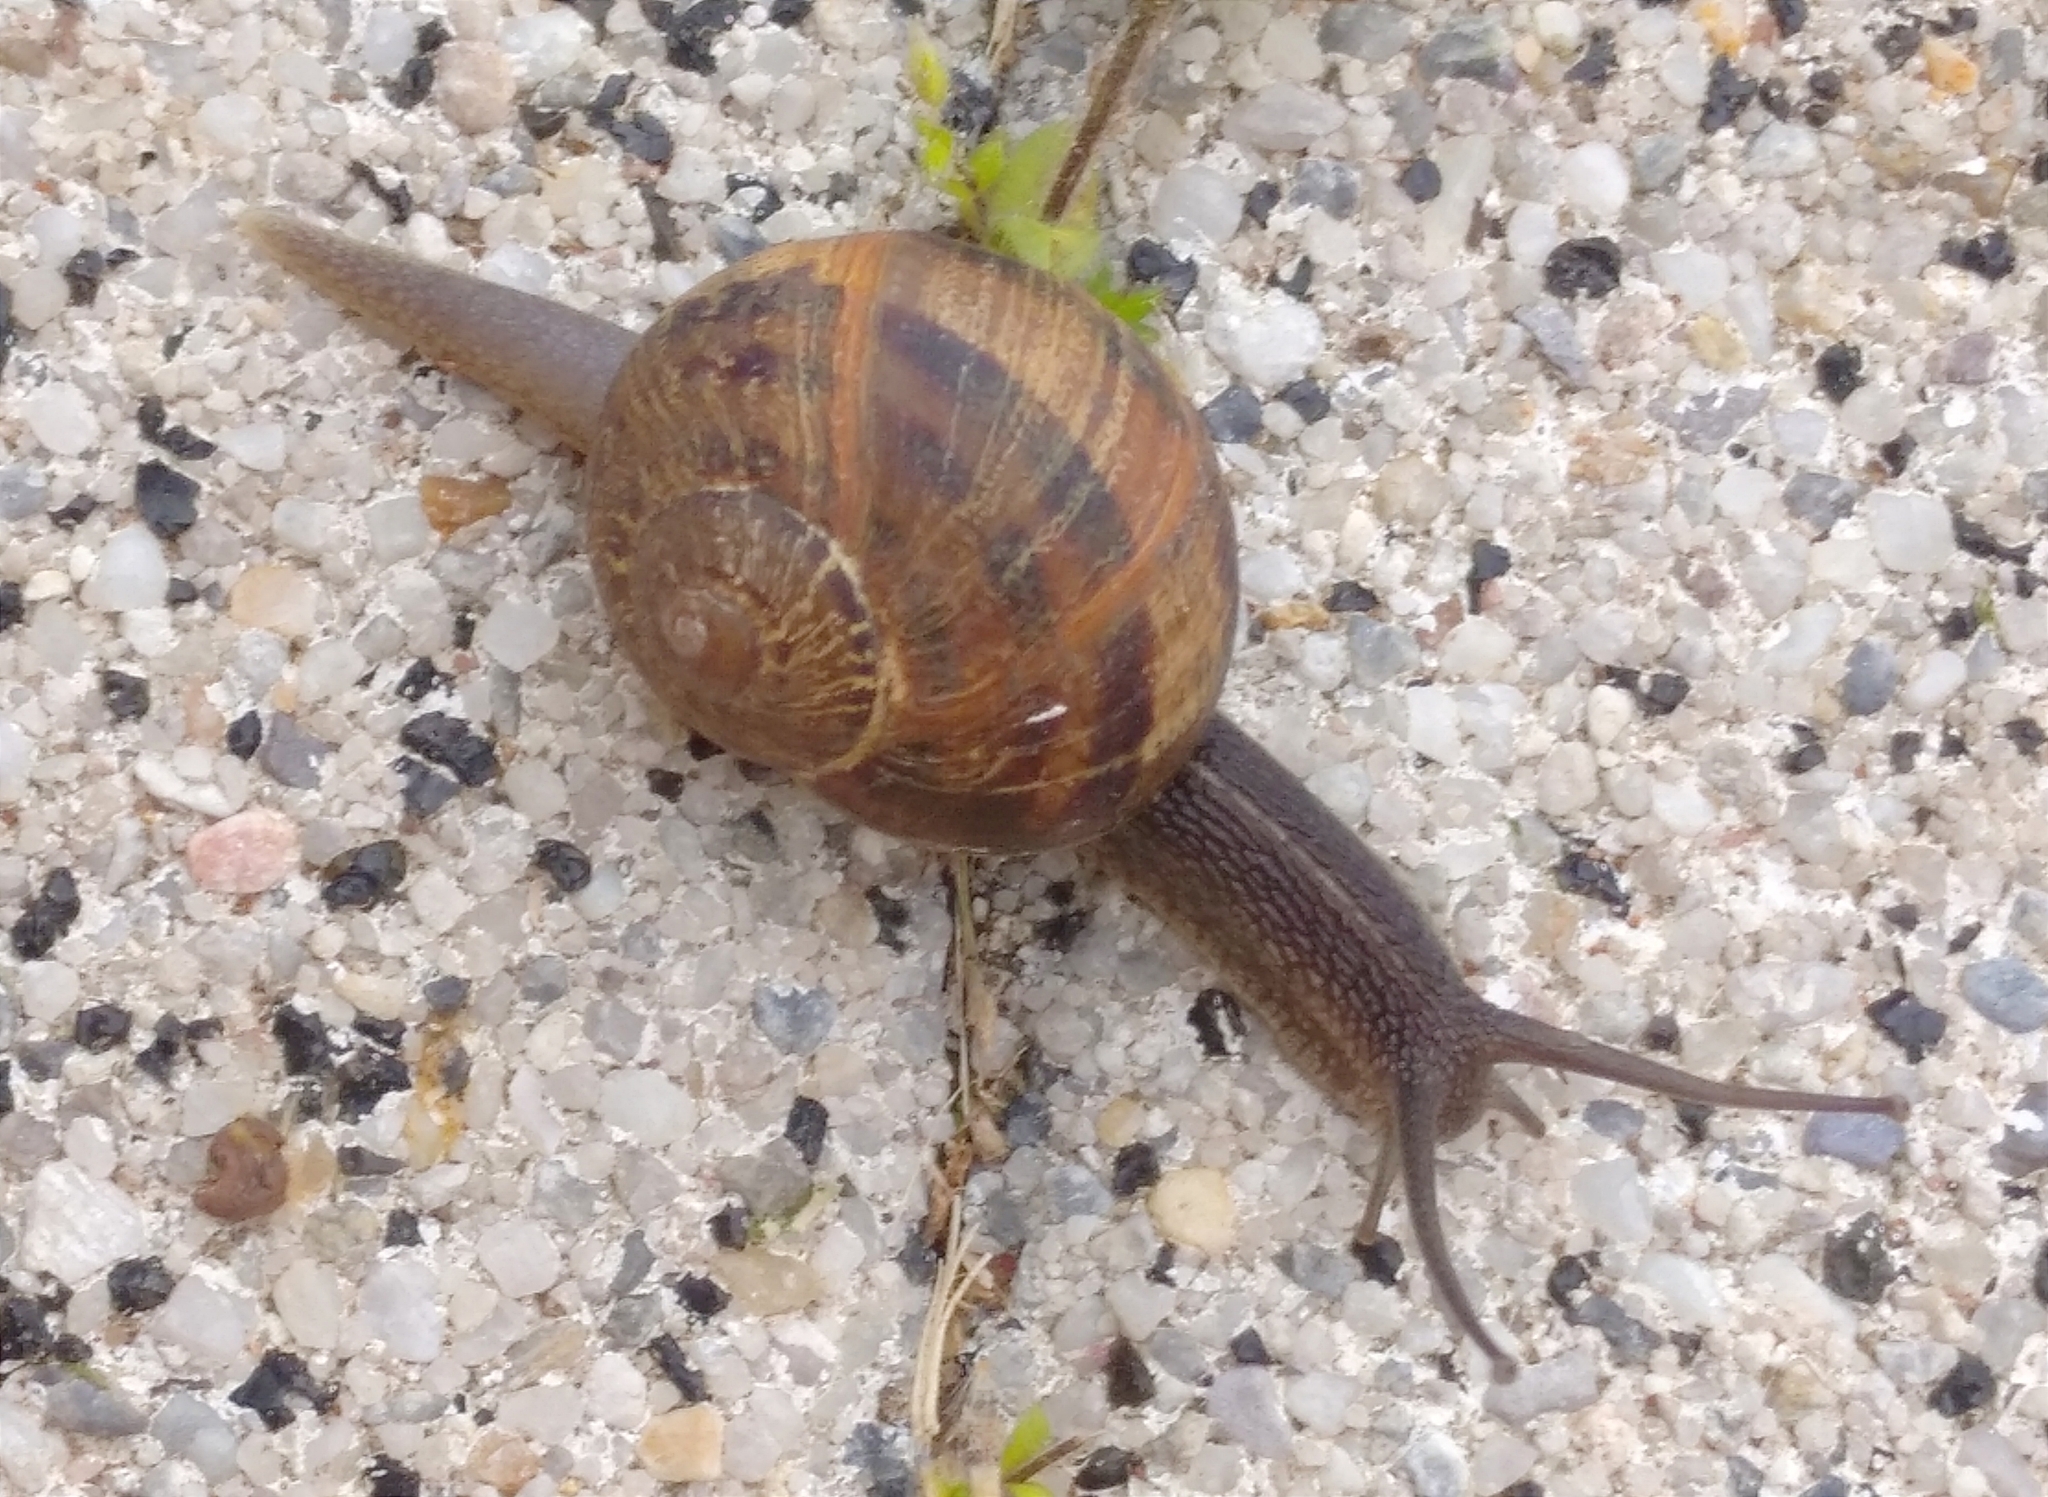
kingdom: Animalia
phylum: Mollusca
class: Gastropoda
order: Stylommatophora
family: Helicidae
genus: Cornu
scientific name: Cornu aspersum
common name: Brown garden snail
